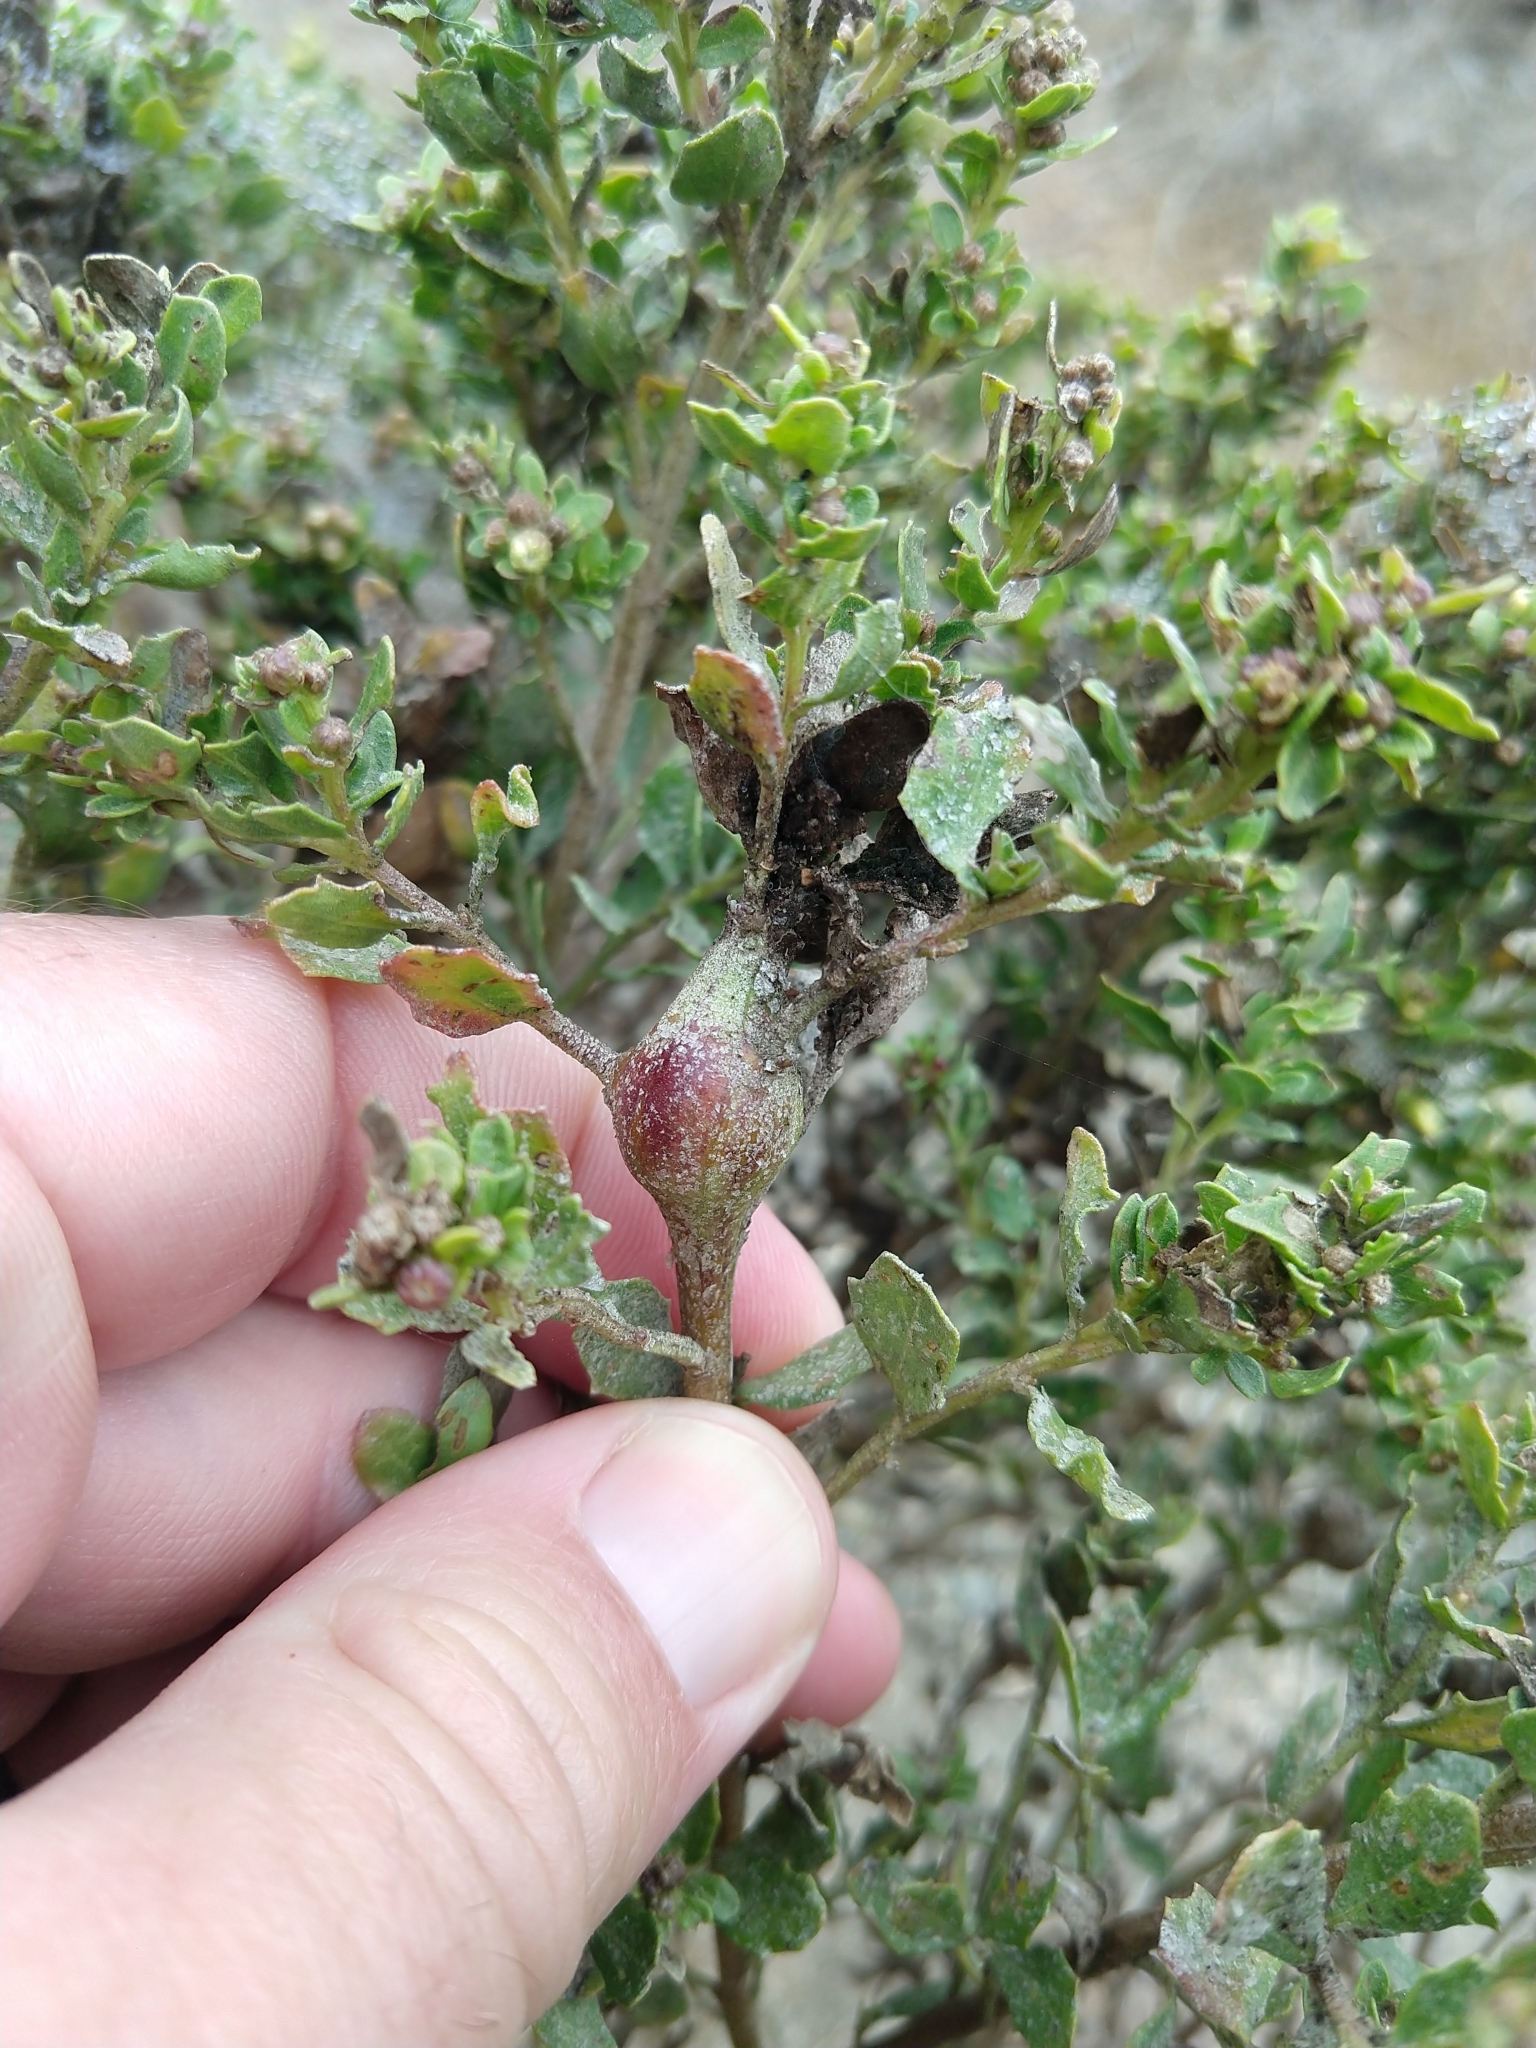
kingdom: Animalia
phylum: Arthropoda
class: Insecta
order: Lepidoptera
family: Gelechiidae
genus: Gnorimoschema
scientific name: Gnorimoschema baccharisella
